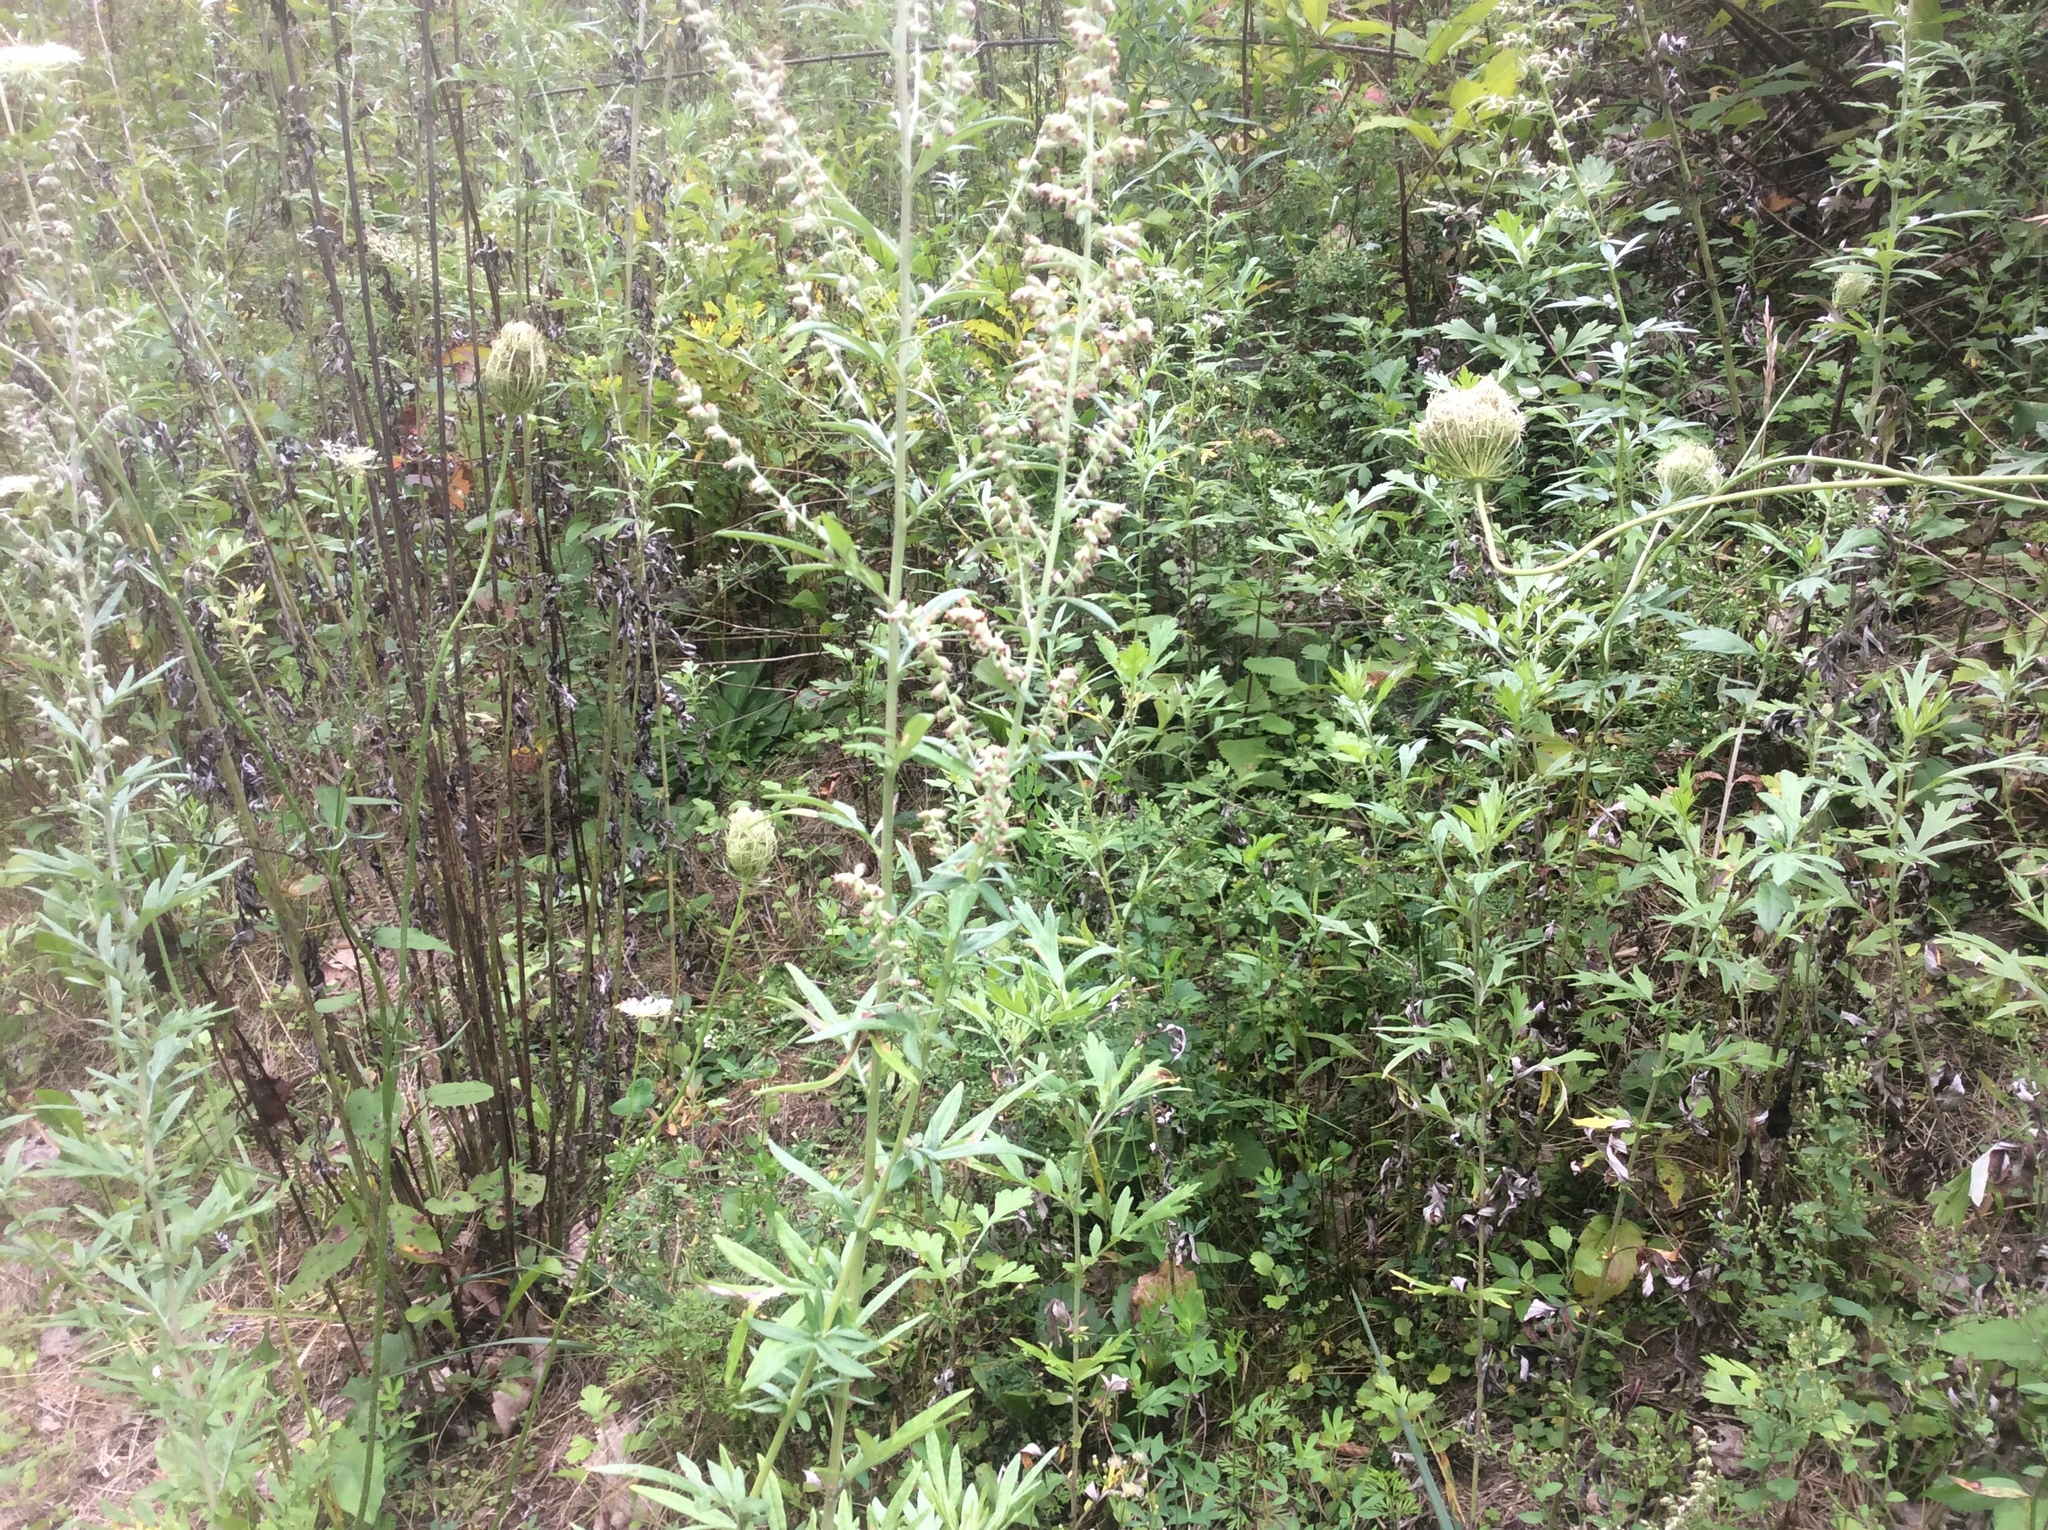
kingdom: Plantae
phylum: Tracheophyta
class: Magnoliopsida
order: Asterales
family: Asteraceae
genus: Artemisia
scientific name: Artemisia vulgaris
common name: Mugwort
